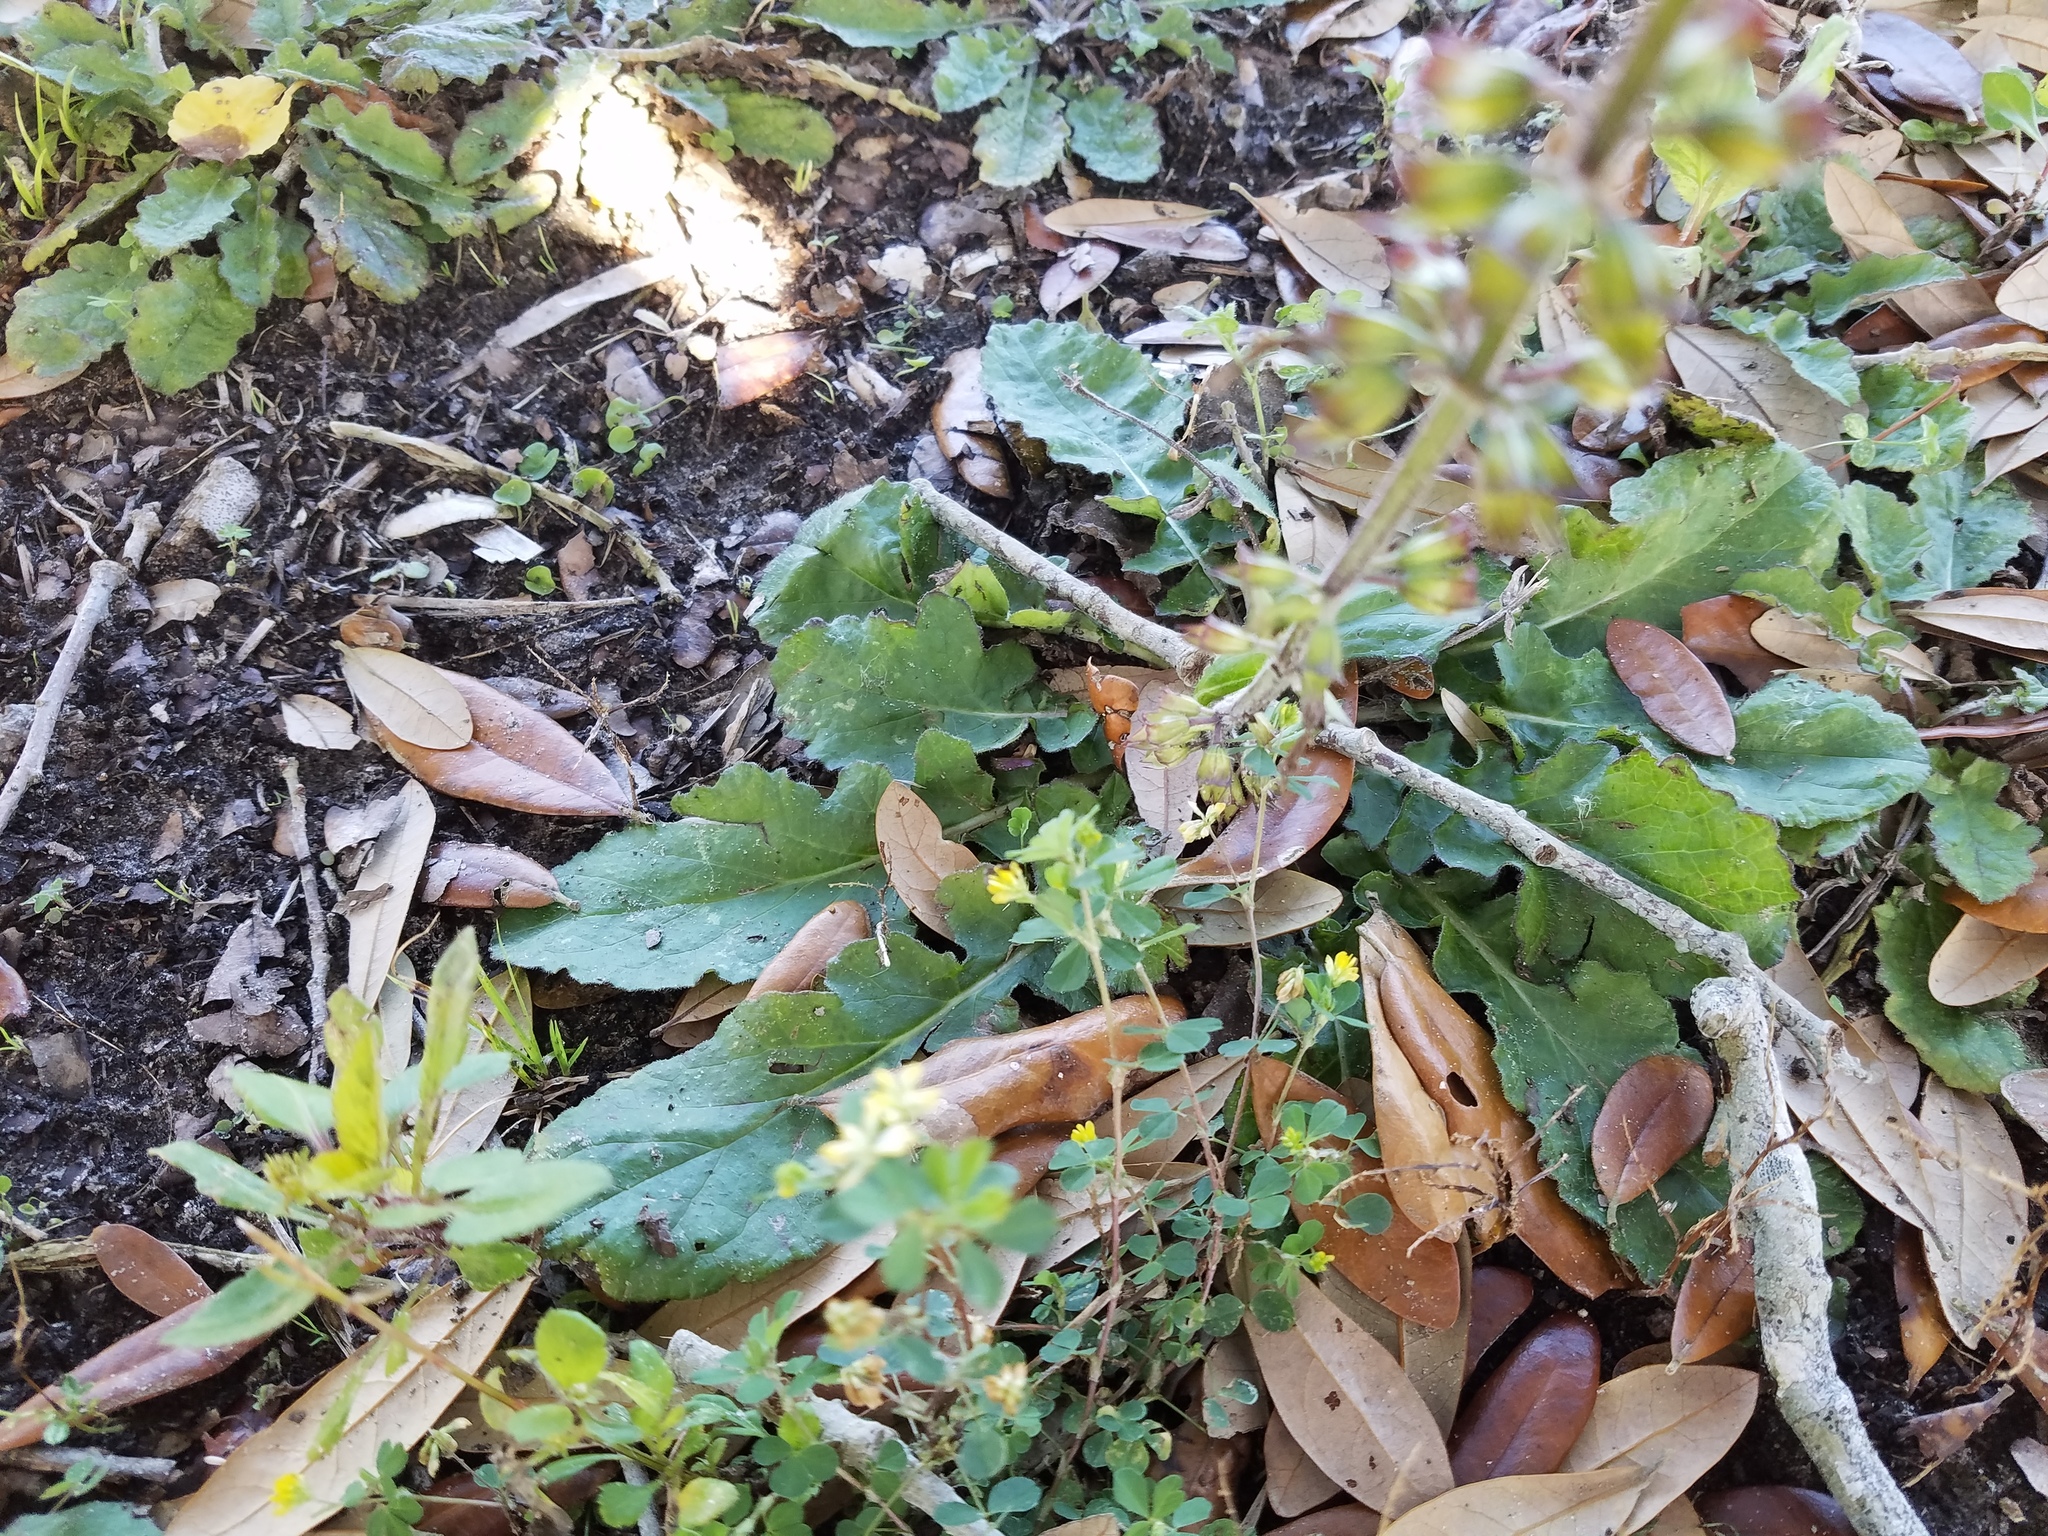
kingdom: Plantae
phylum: Tracheophyta
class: Magnoliopsida
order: Lamiales
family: Lamiaceae
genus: Salvia
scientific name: Salvia lyrata
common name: Cancerweed
